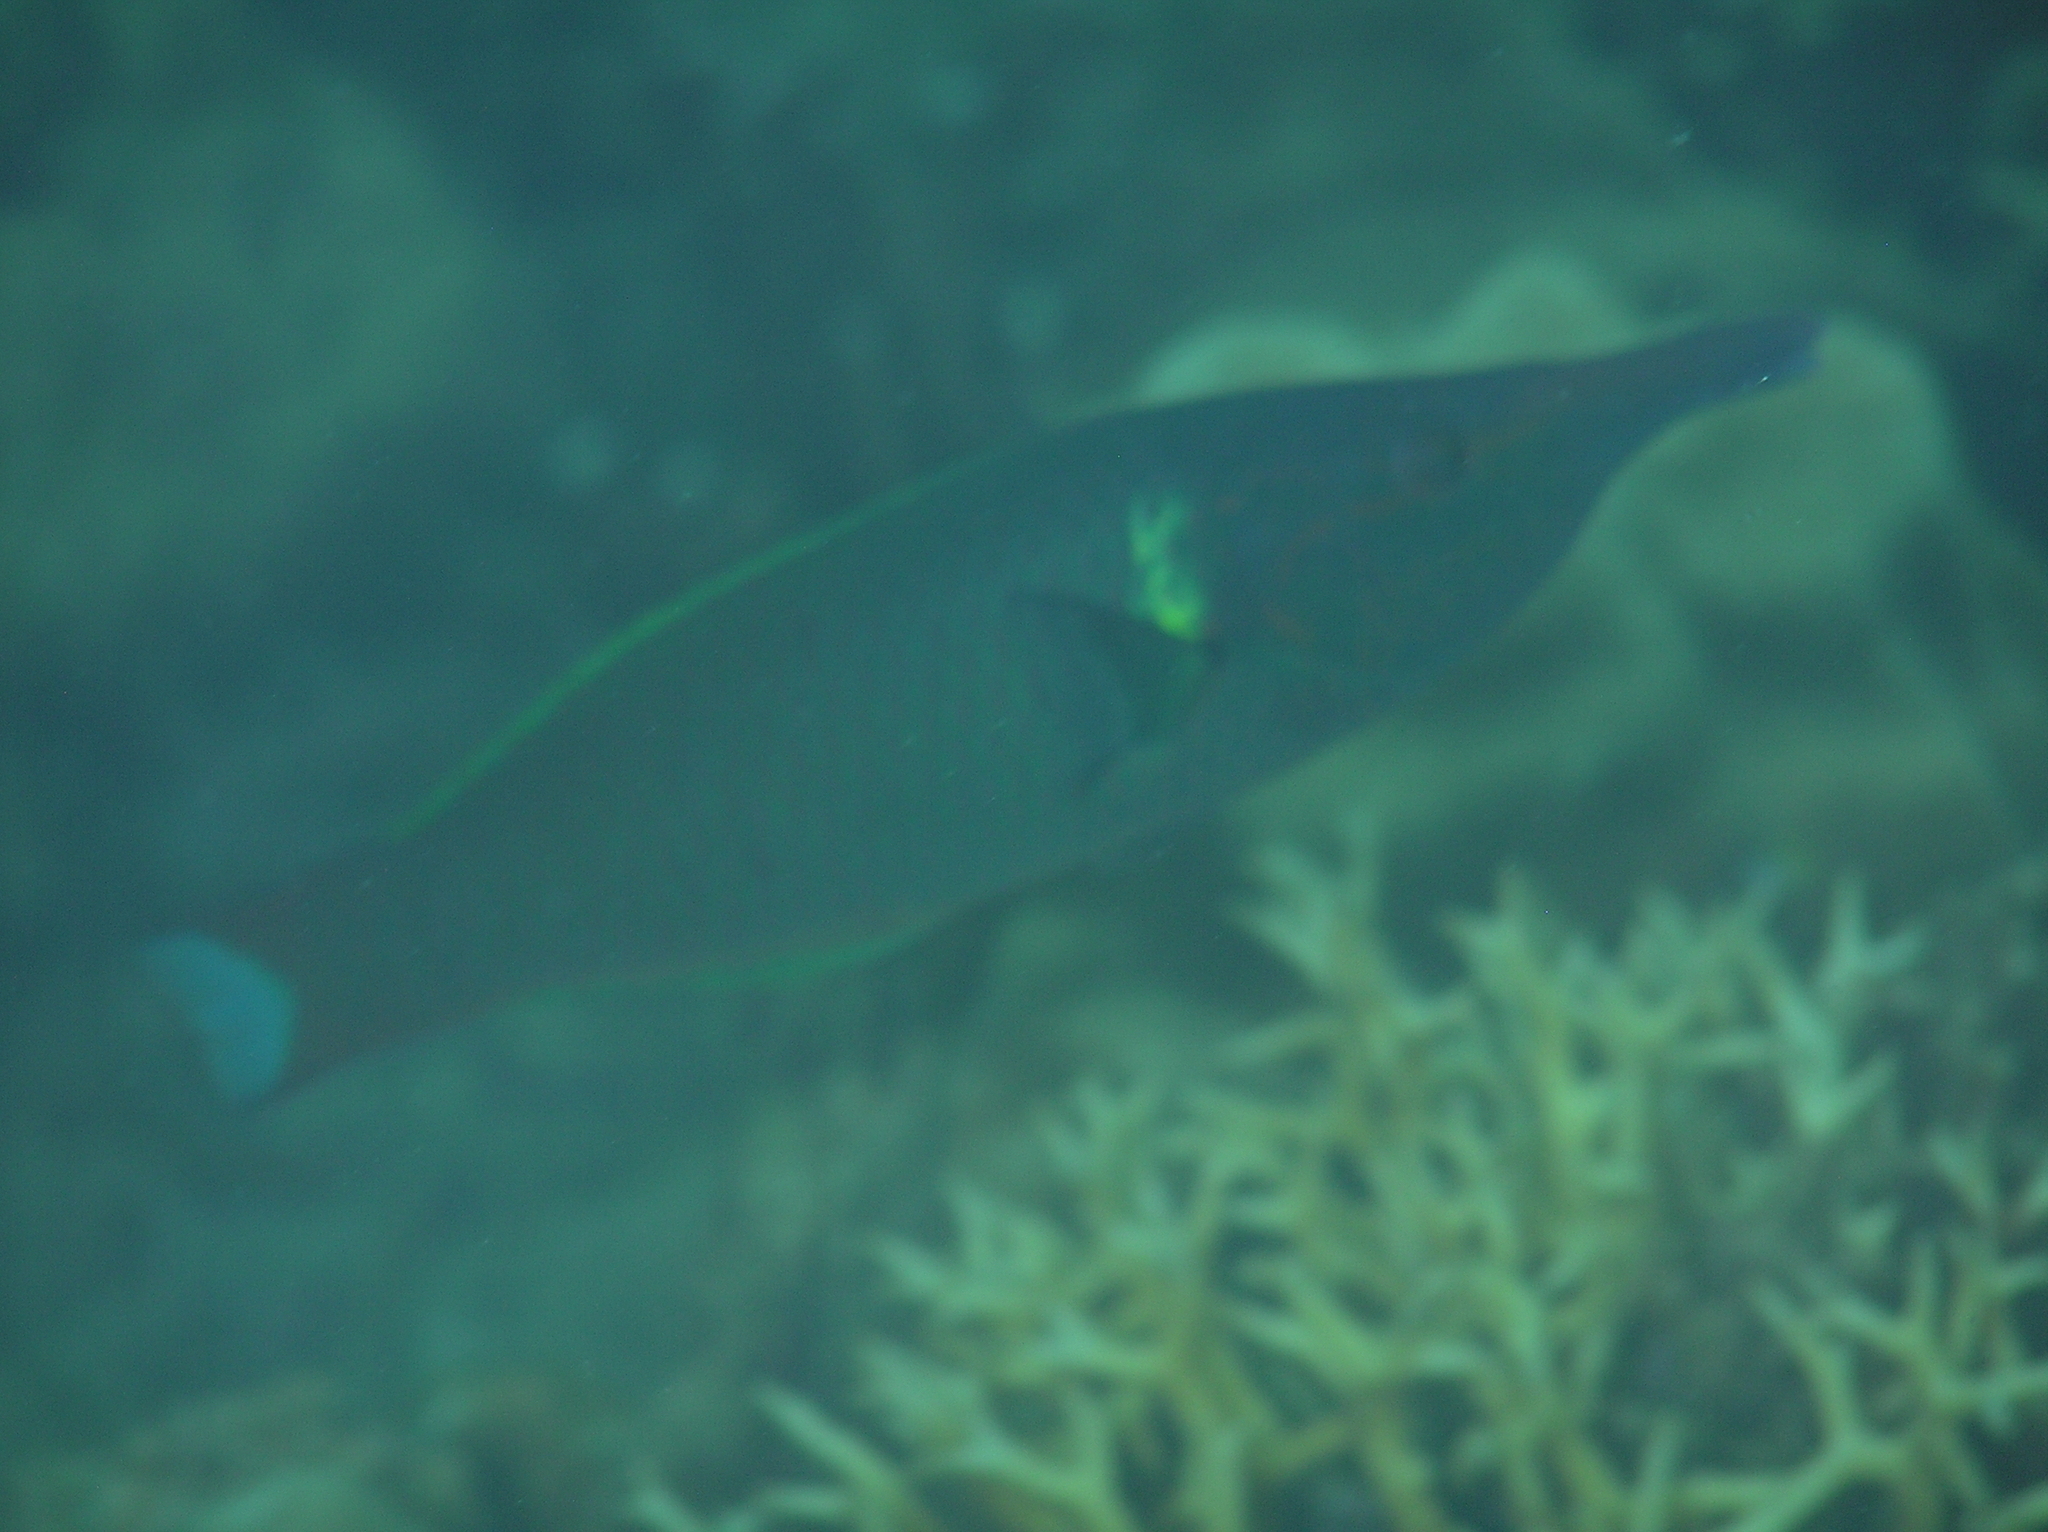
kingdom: Animalia
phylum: Chordata
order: Perciformes
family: Labridae
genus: Gomphosus
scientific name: Gomphosus varius
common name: Bird wrasse
